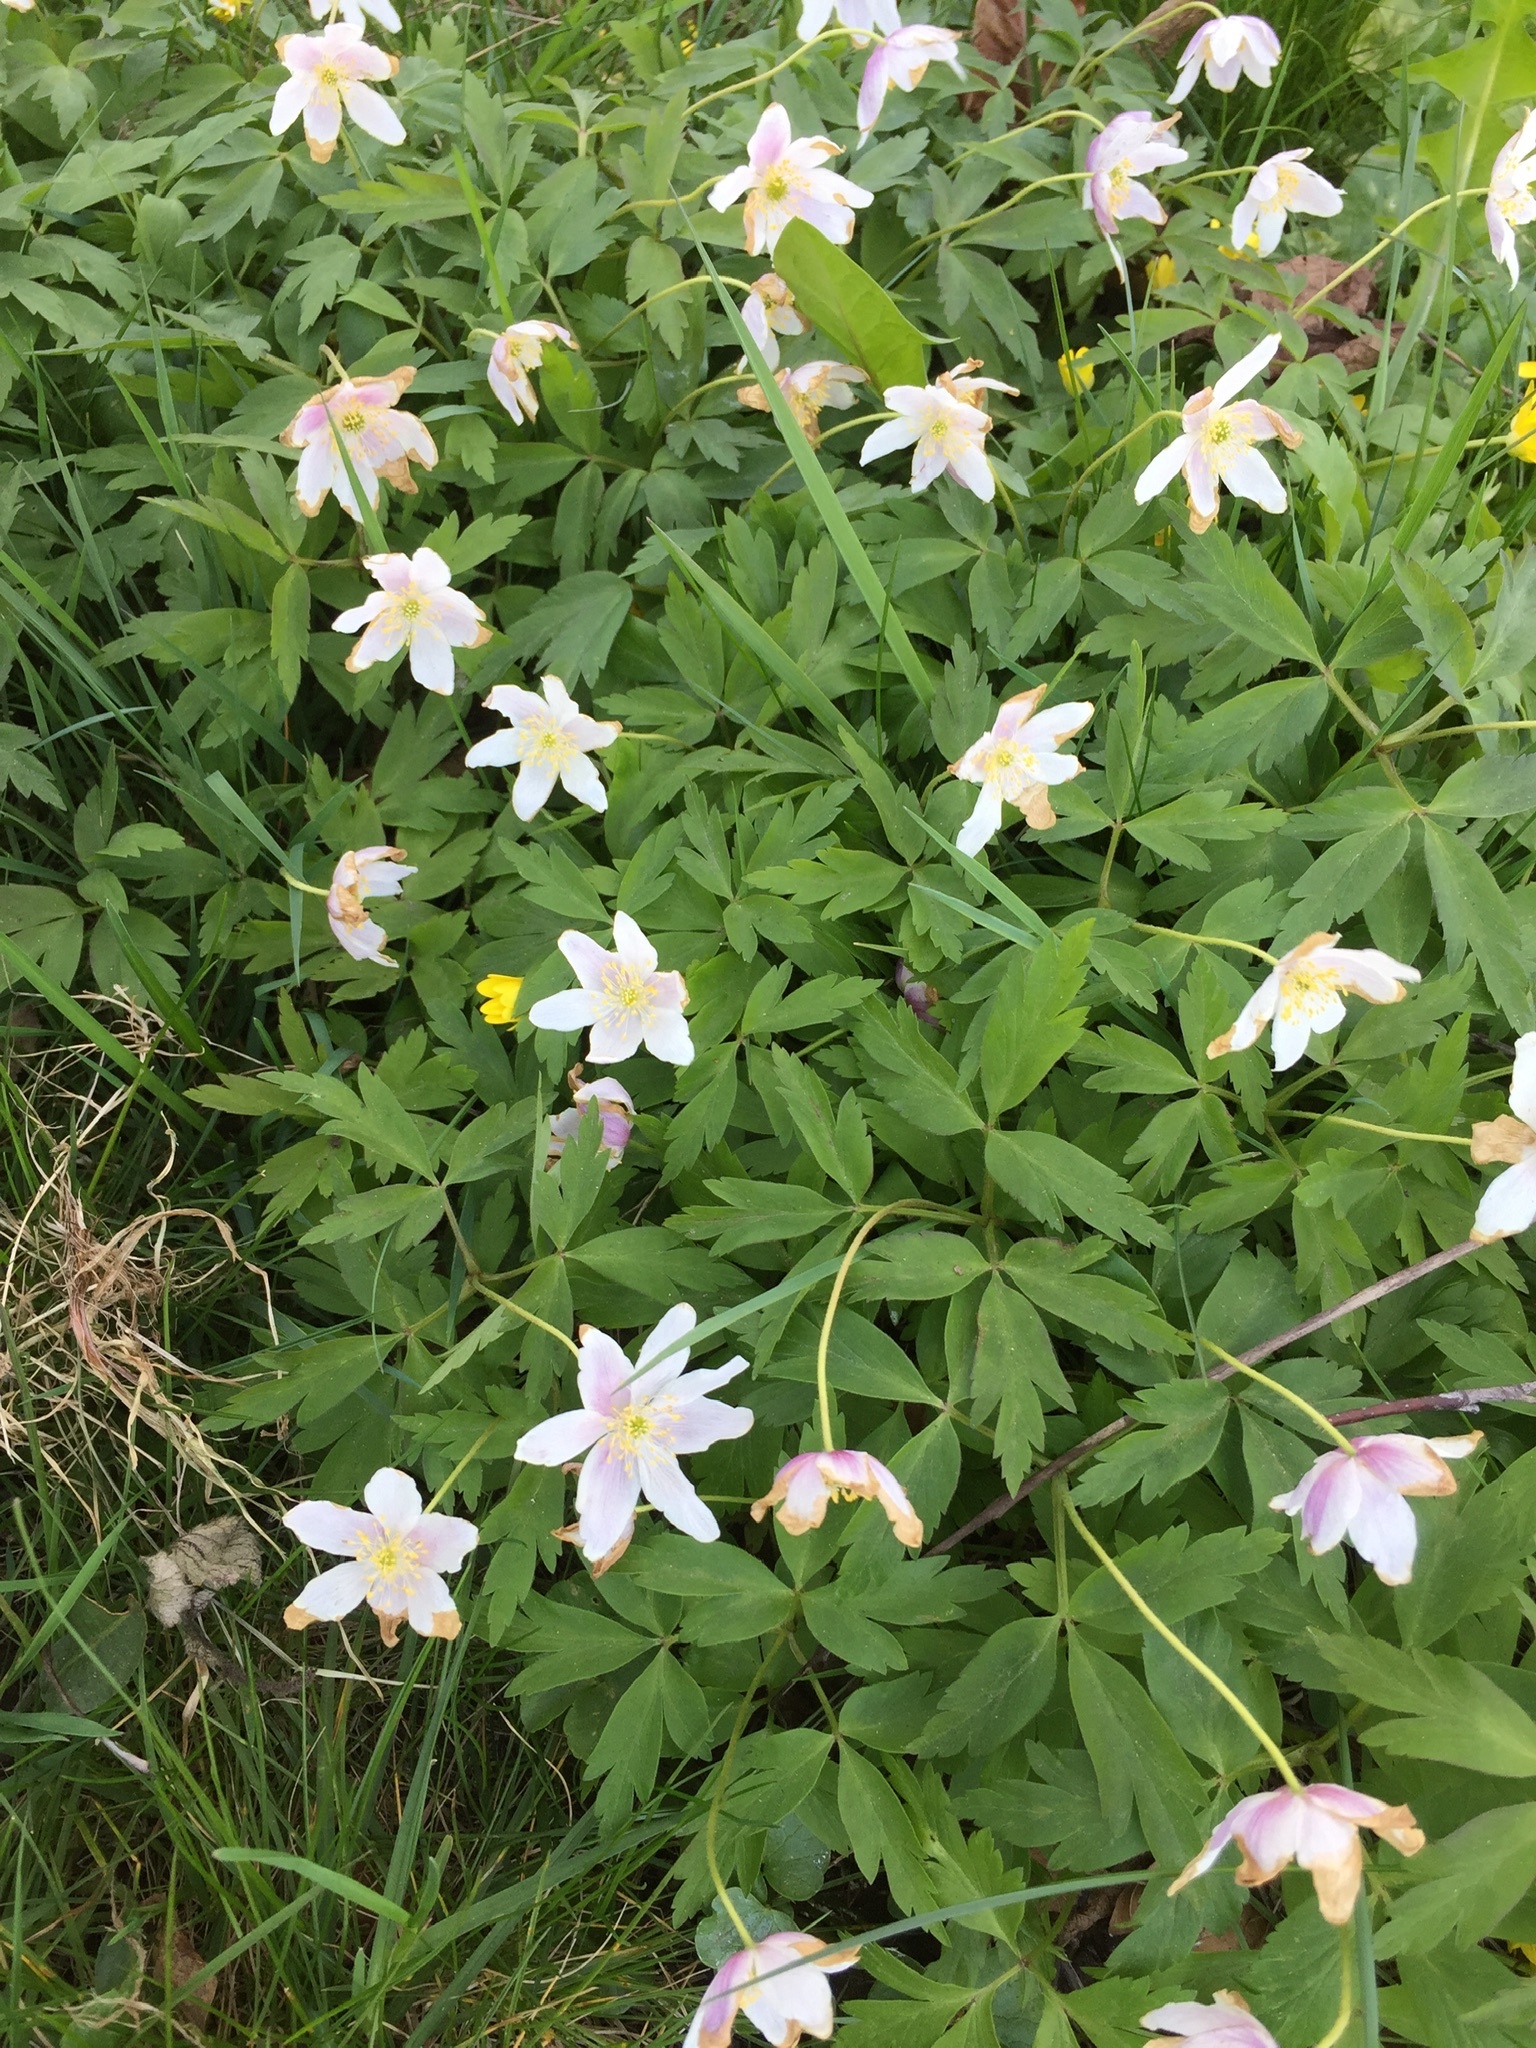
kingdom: Plantae
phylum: Tracheophyta
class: Magnoliopsida
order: Ranunculales
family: Ranunculaceae
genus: Anemone
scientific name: Anemone nemorosa
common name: Wood anemone
